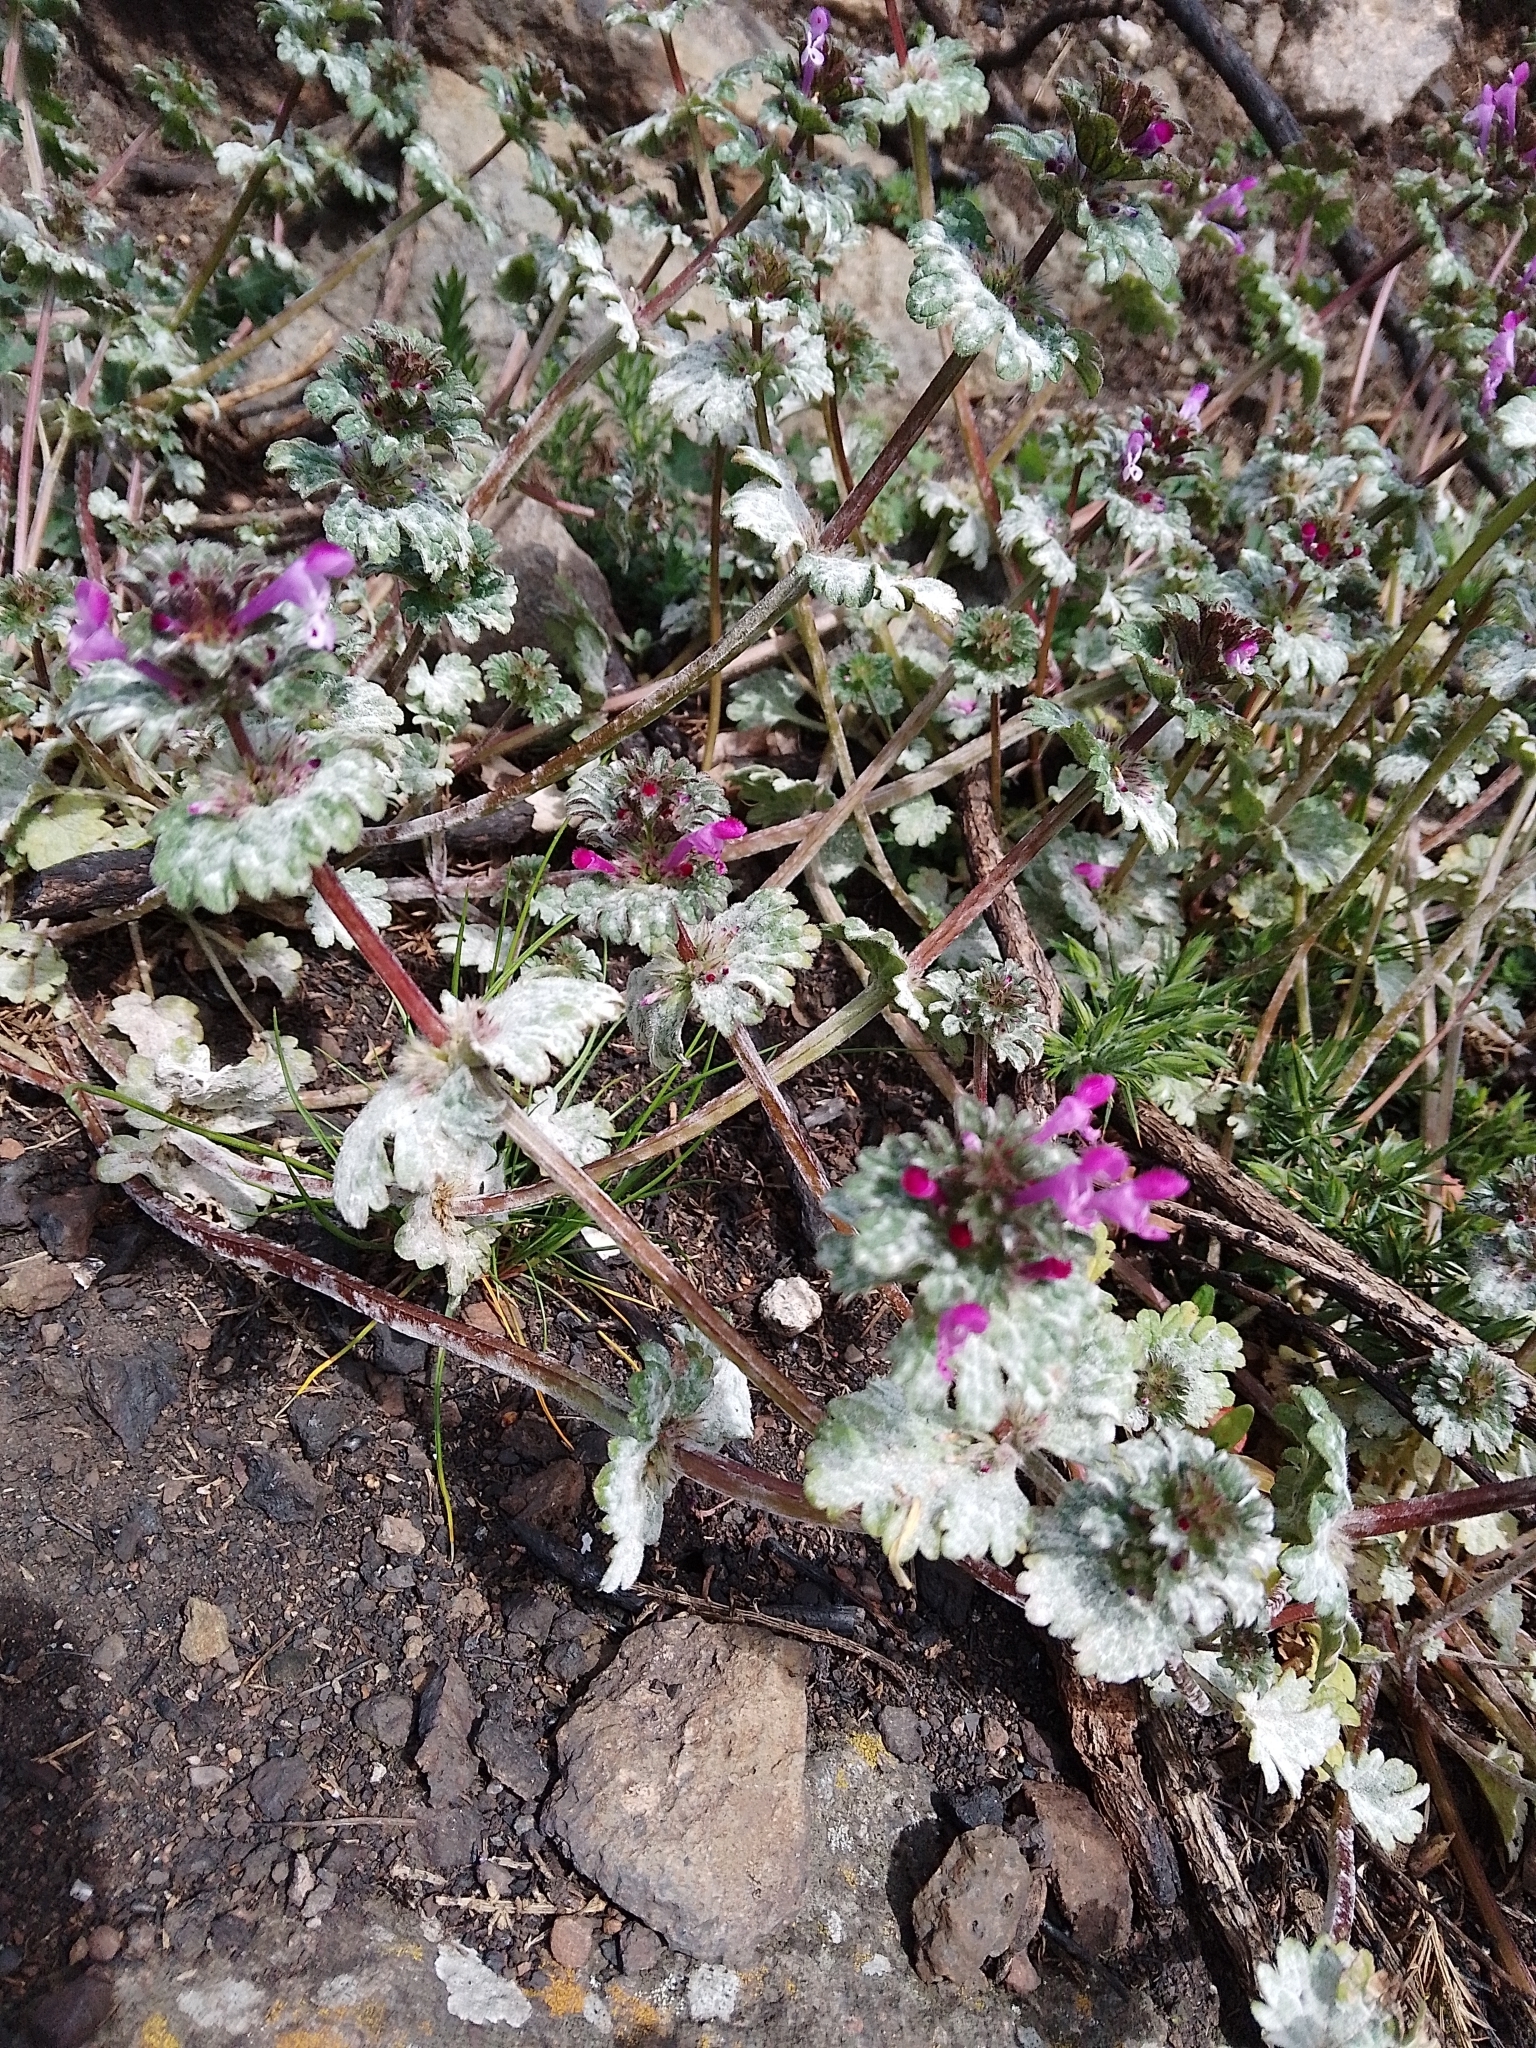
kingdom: Plantae
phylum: Tracheophyta
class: Magnoliopsida
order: Lamiales
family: Lamiaceae
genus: Lamium
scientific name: Lamium amplexicaule
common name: Henbit dead-nettle
